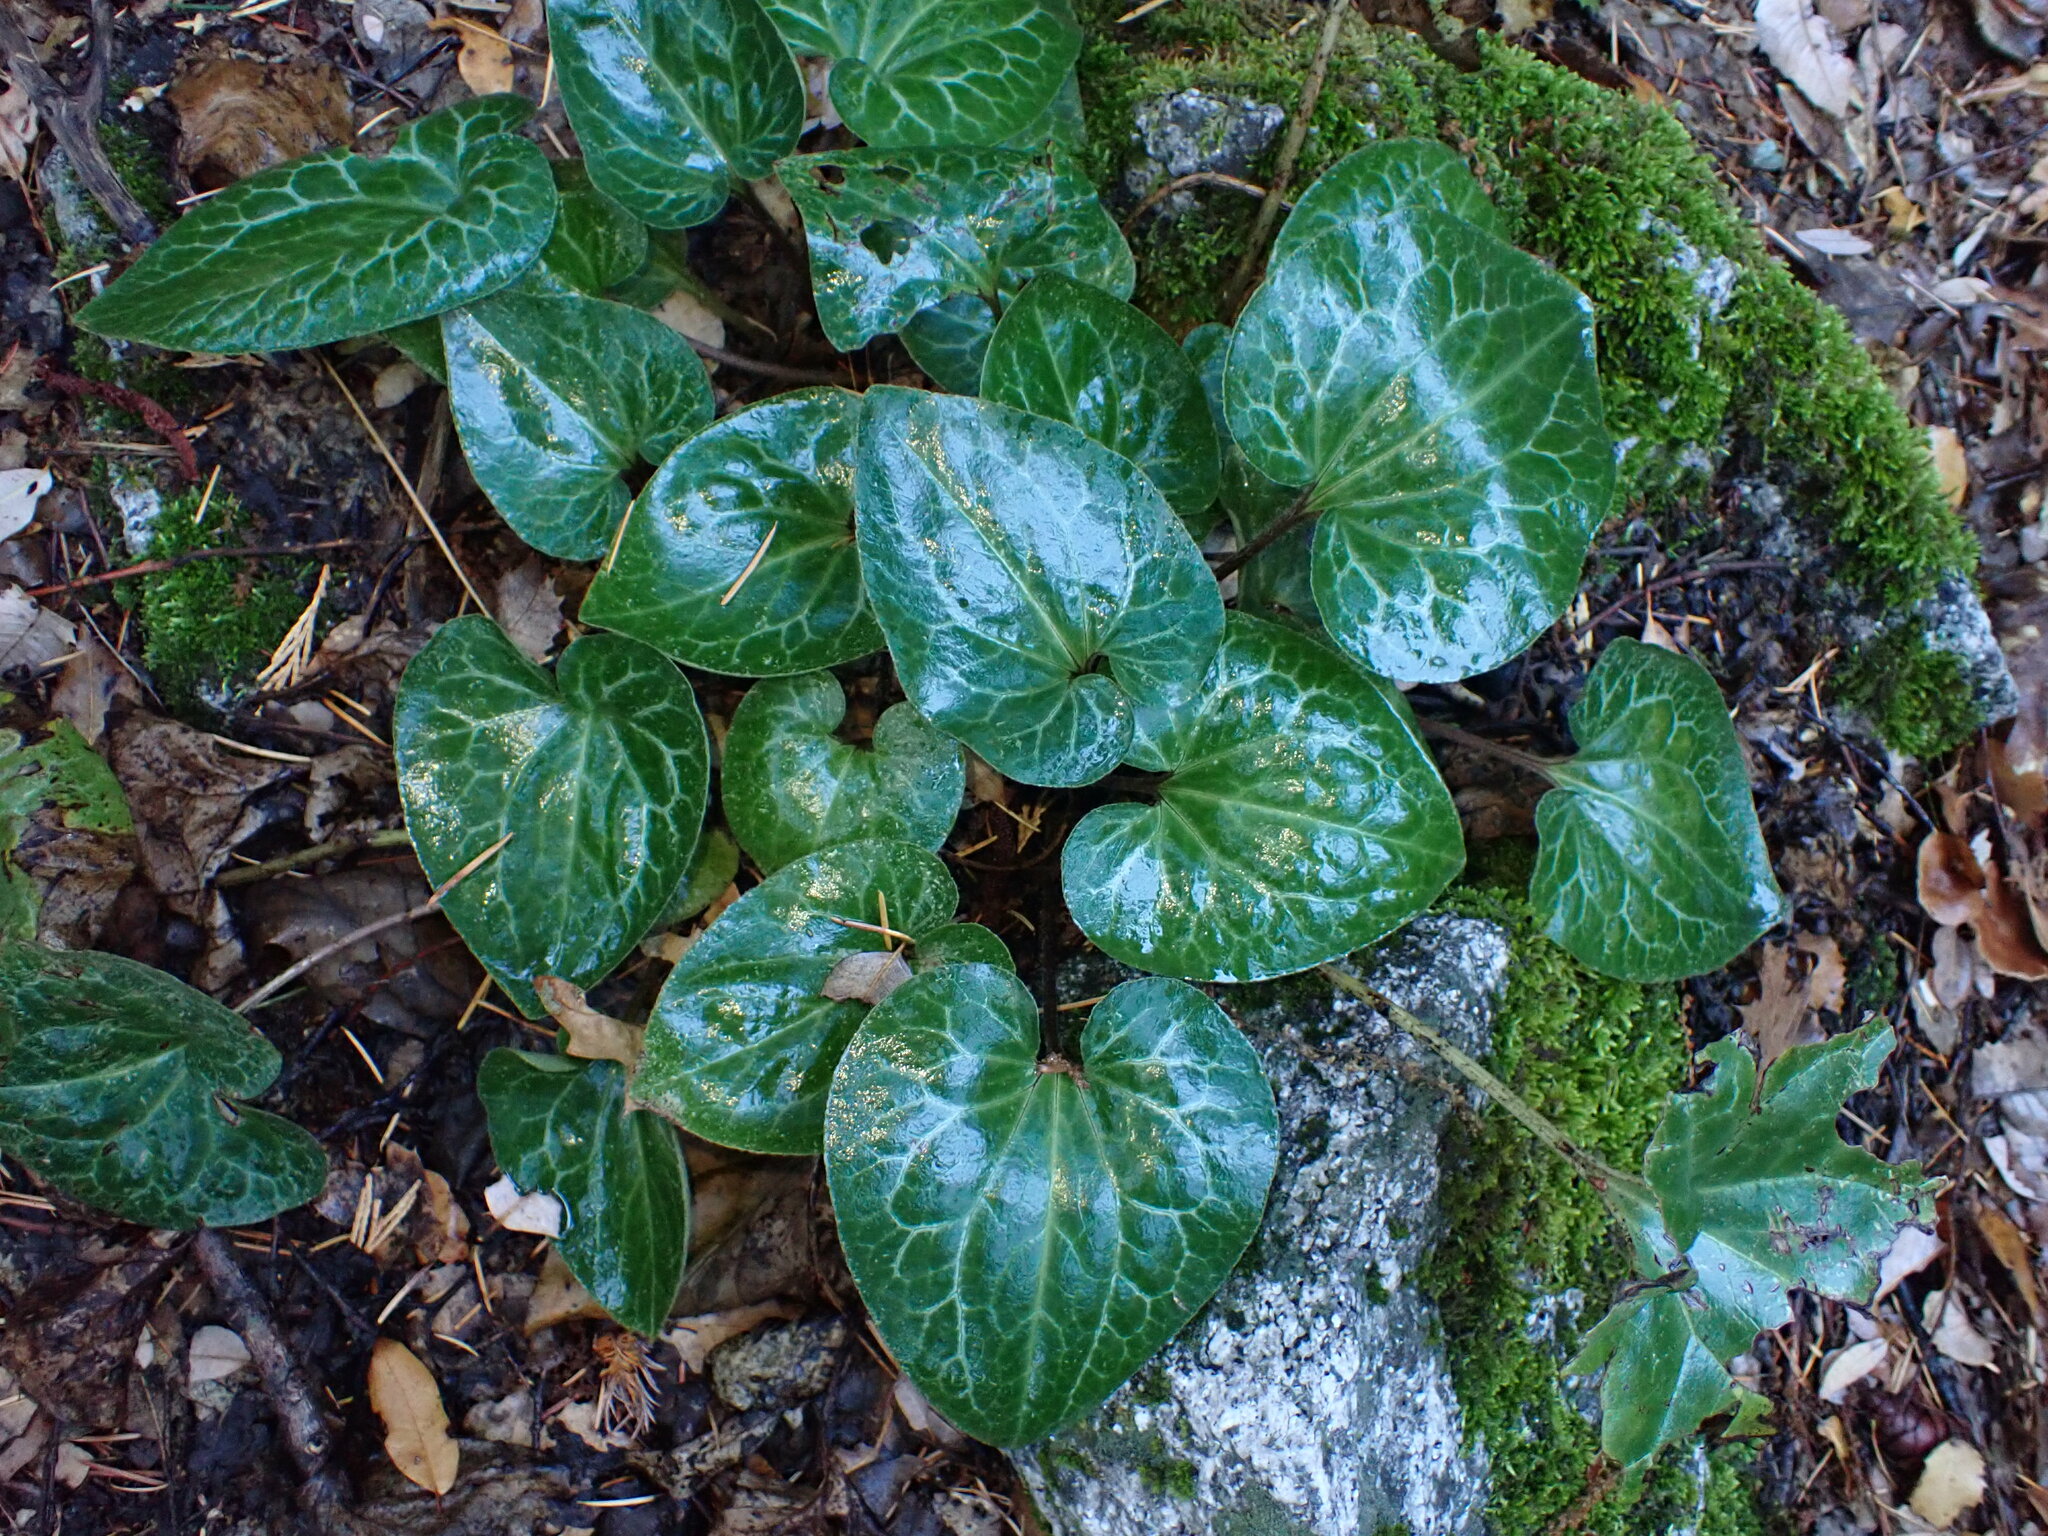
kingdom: Plantae
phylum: Tracheophyta
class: Magnoliopsida
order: Piperales
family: Aristolochiaceae
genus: Asarum
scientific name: Asarum hartwegii
